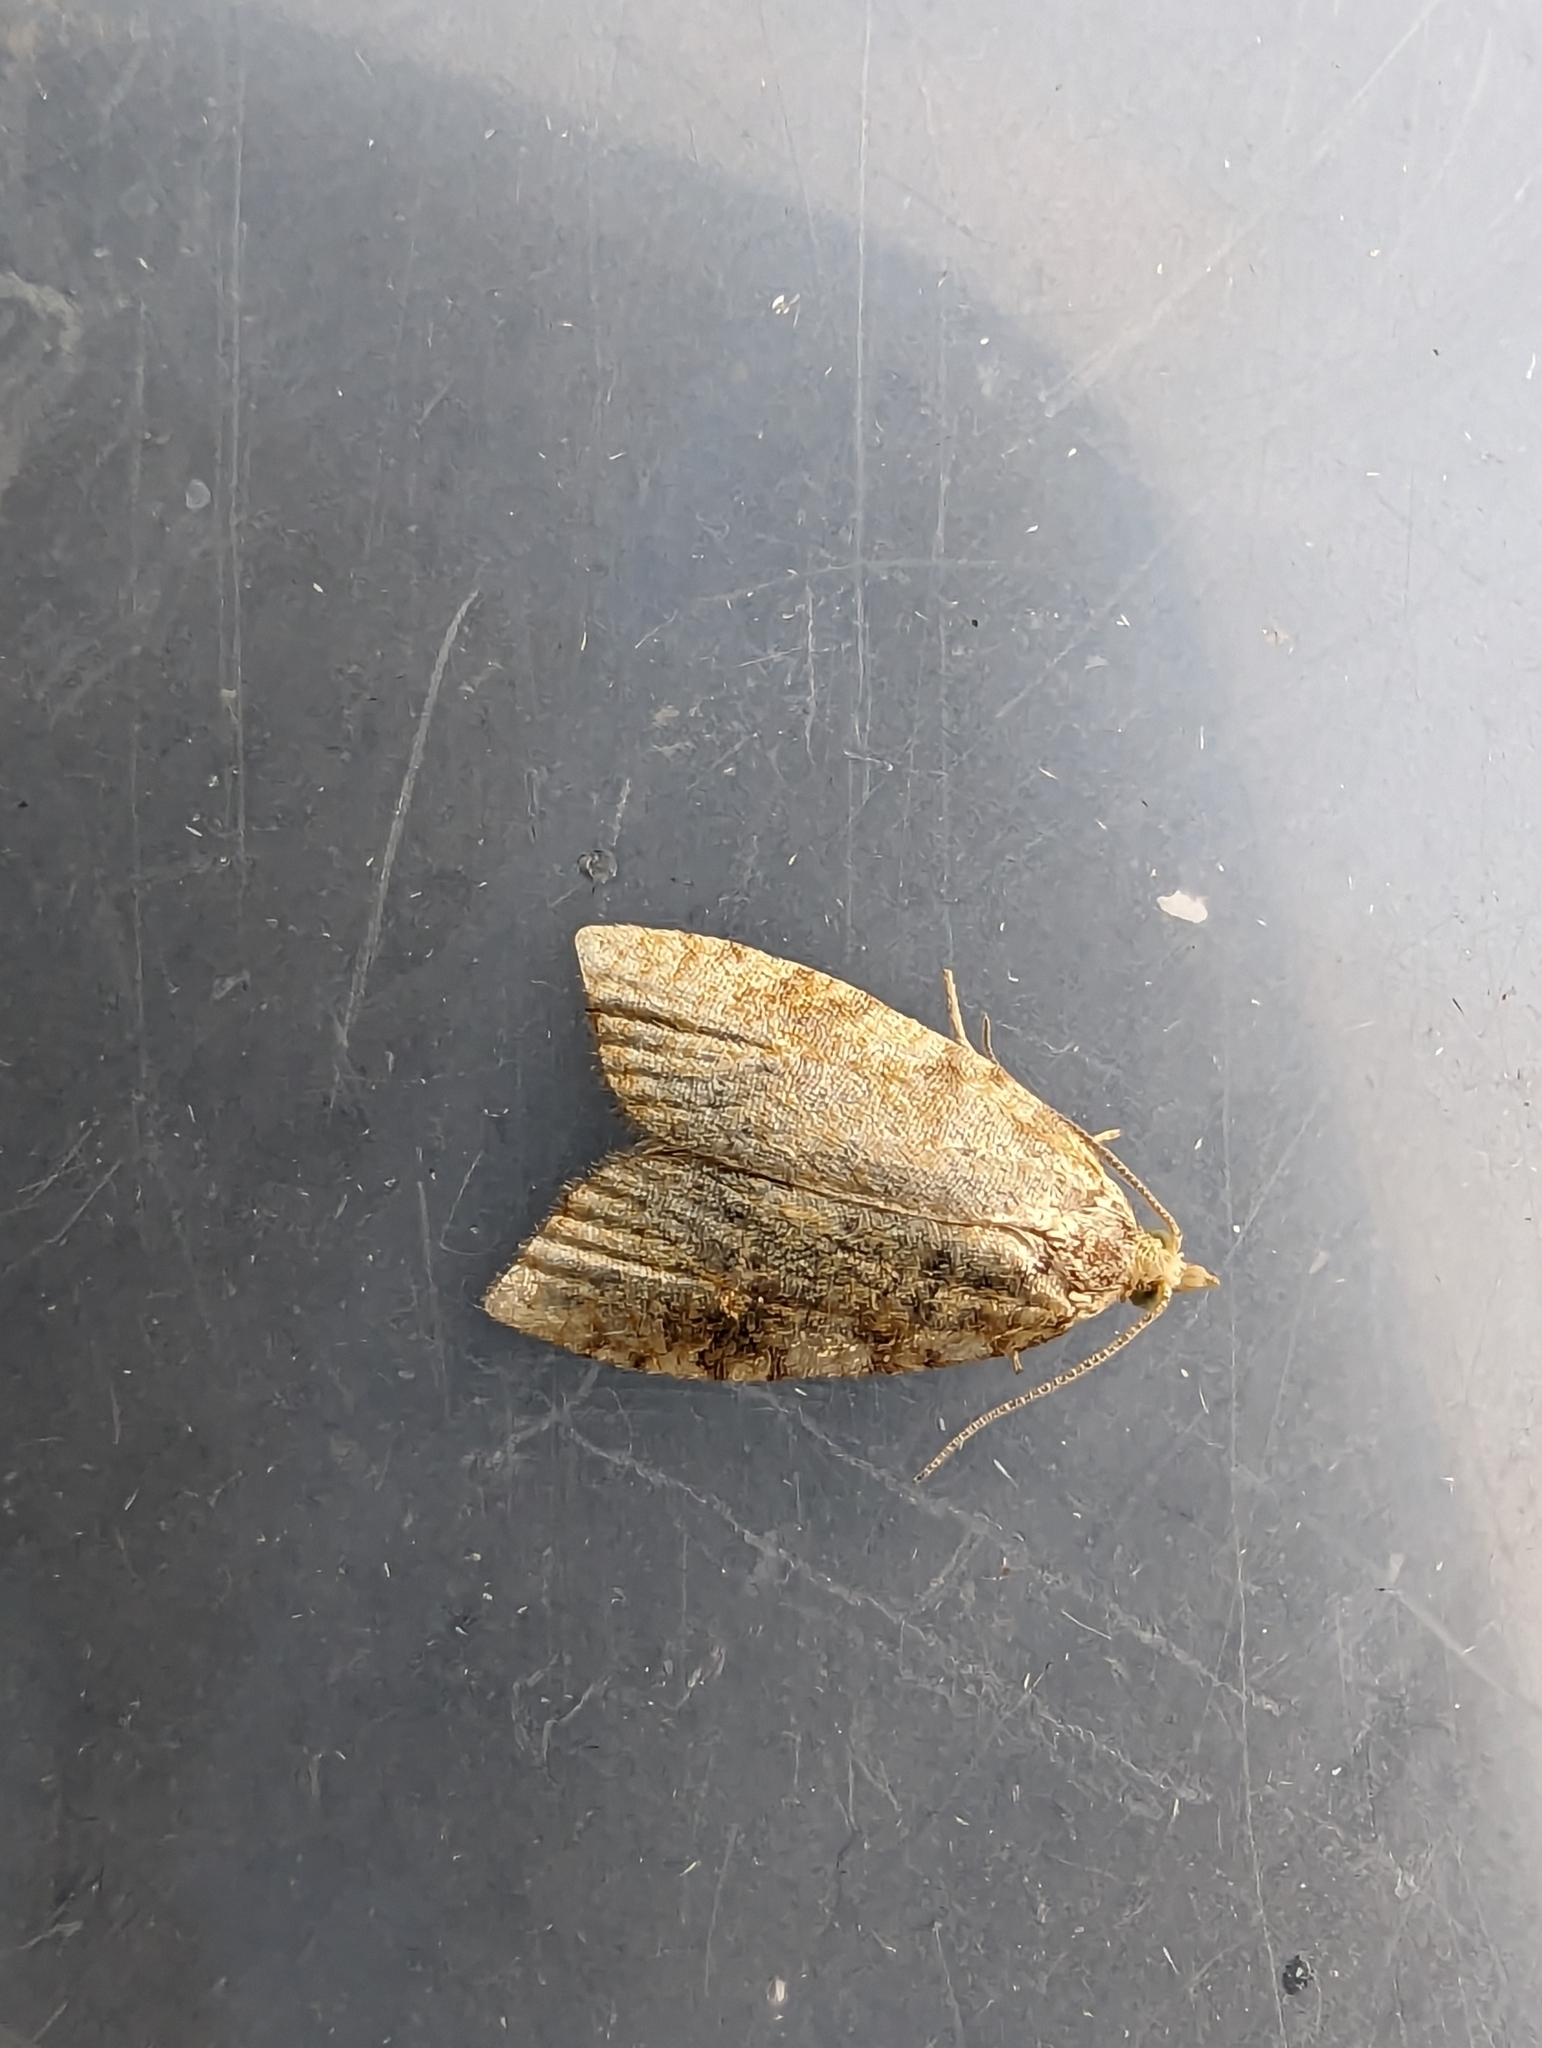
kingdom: Animalia
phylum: Arthropoda
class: Insecta
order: Lepidoptera
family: Tortricidae
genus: Aleimma
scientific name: Aleimma loeflingiana
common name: Yellow oak button
